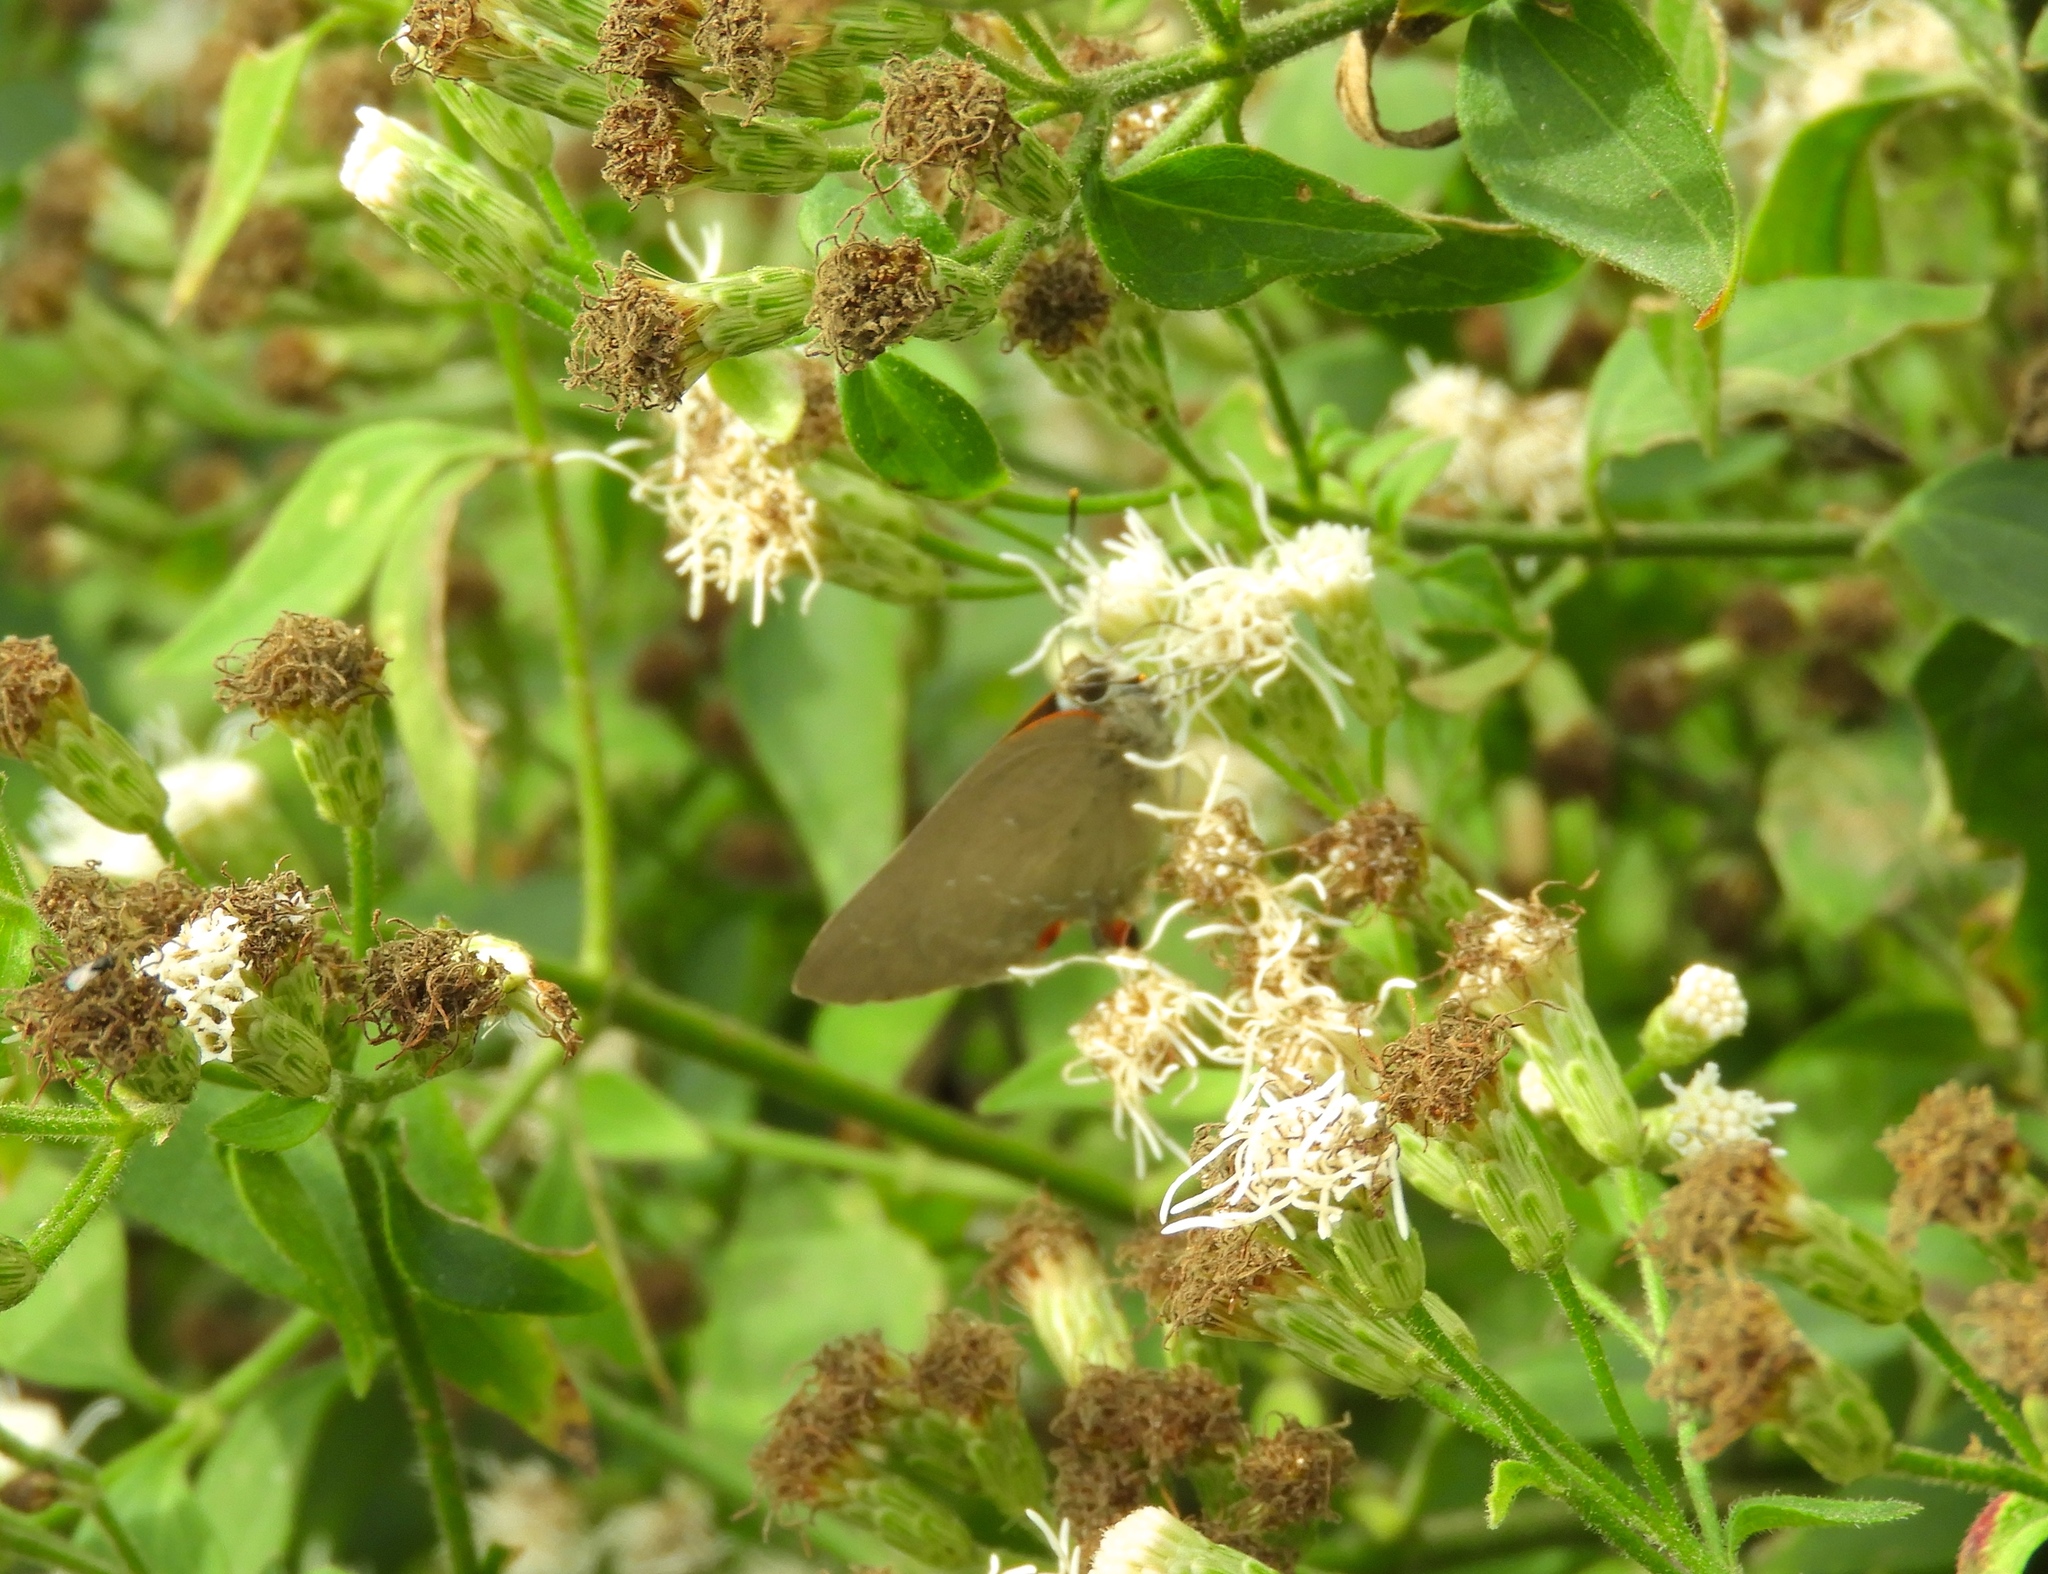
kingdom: Animalia
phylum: Arthropoda
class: Insecta
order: Lepidoptera
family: Lycaenidae
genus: Michaelus
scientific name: Michaelus ira
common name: Shadowed hairstreak
